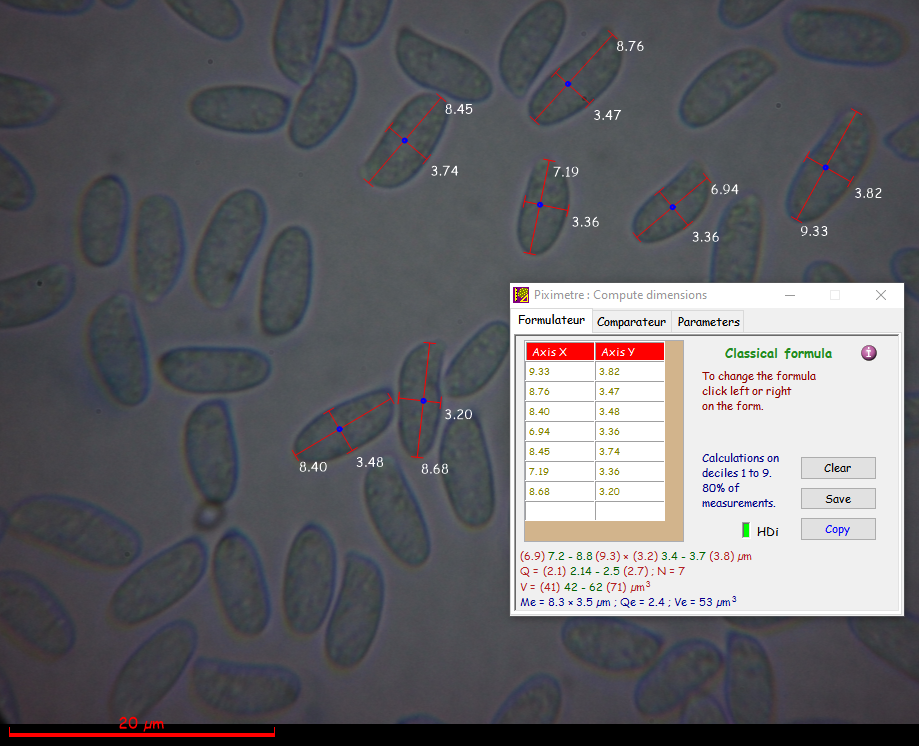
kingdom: Fungi
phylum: Basidiomycota
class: Agaricomycetes
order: Agaricales
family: Pleurotaceae
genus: Pleurotus
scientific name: Pleurotus ostreatus
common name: Oyster mushroom
